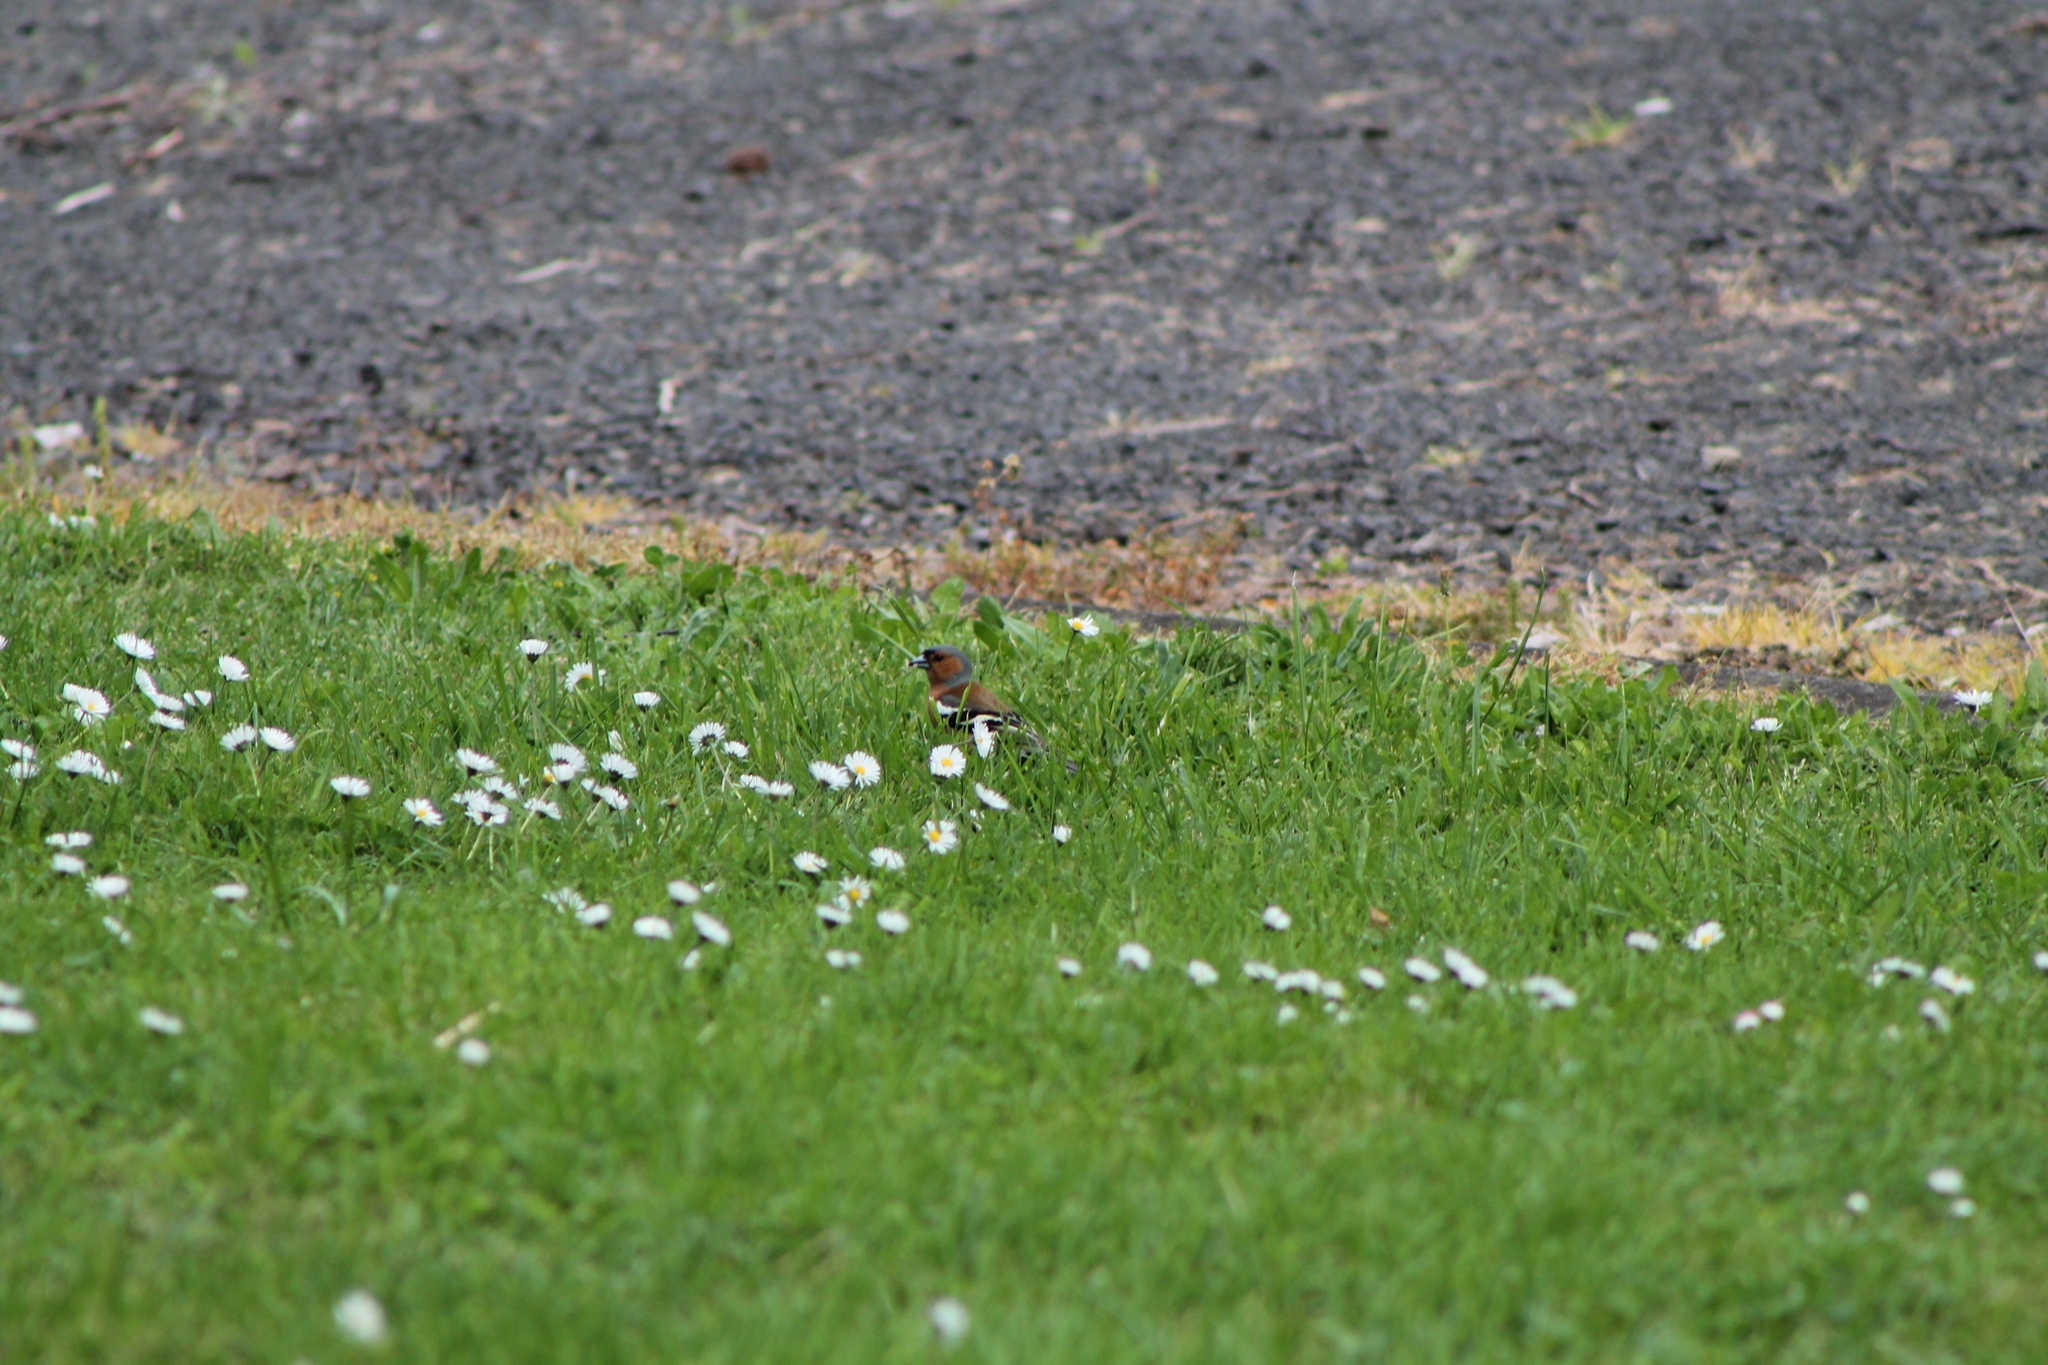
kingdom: Animalia
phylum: Chordata
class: Aves
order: Passeriformes
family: Fringillidae
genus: Fringilla
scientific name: Fringilla coelebs
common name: Common chaffinch
